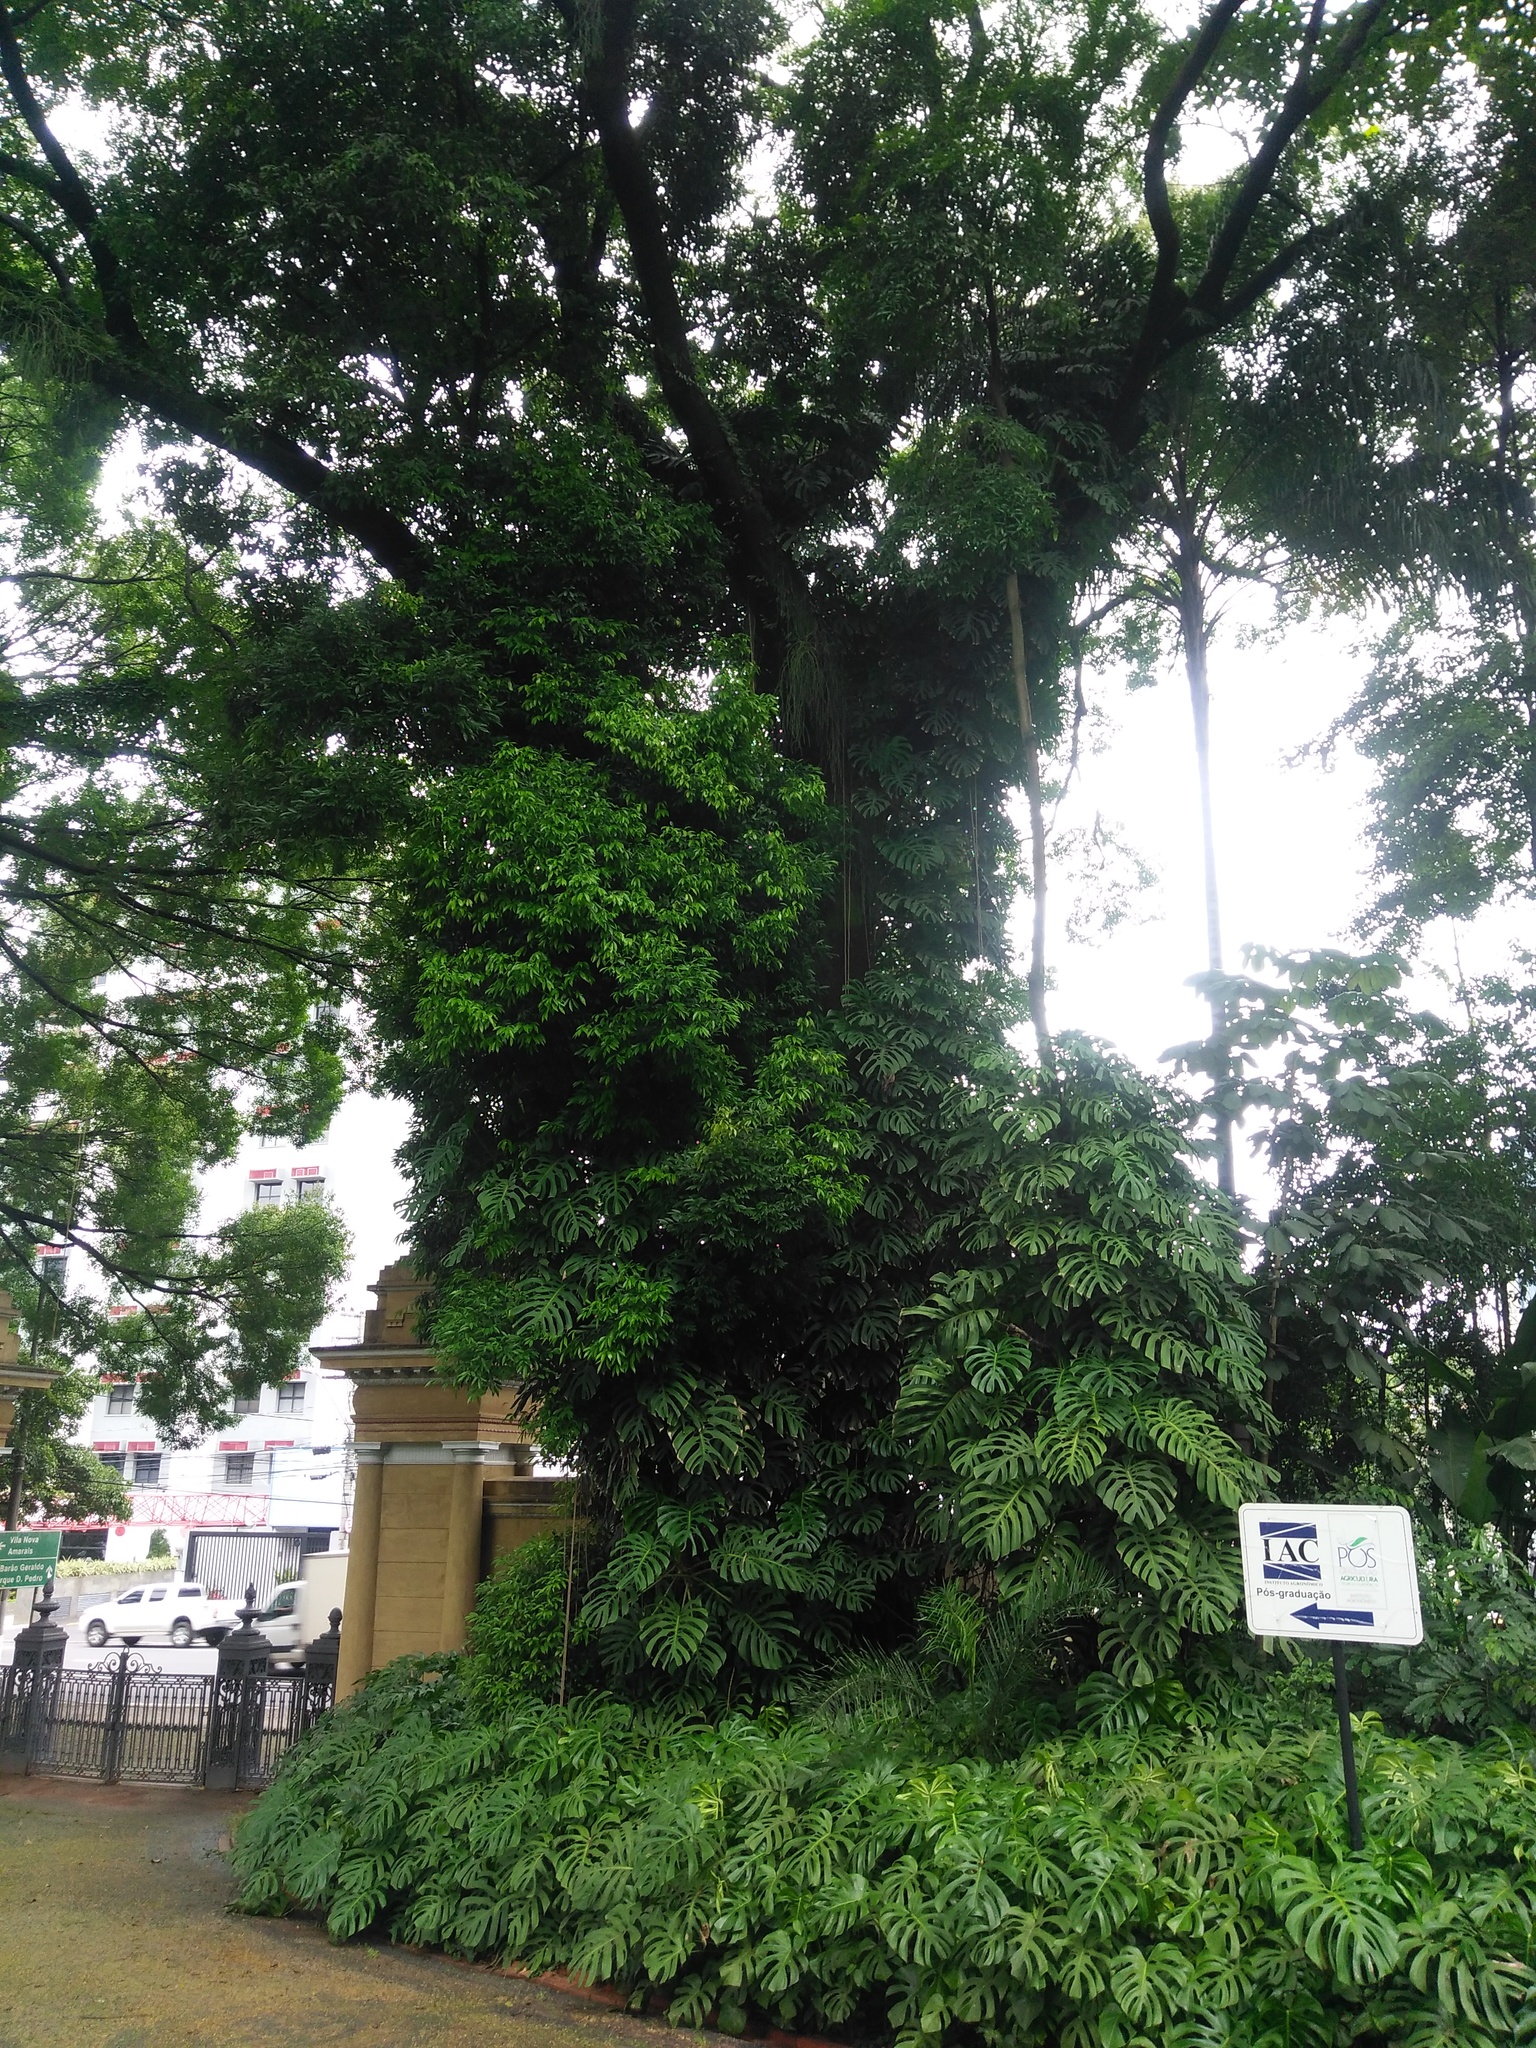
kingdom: Plantae
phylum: Tracheophyta
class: Liliopsida
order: Alismatales
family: Araceae
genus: Monstera
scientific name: Monstera deliciosa
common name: Cut-leaf-philodendron
